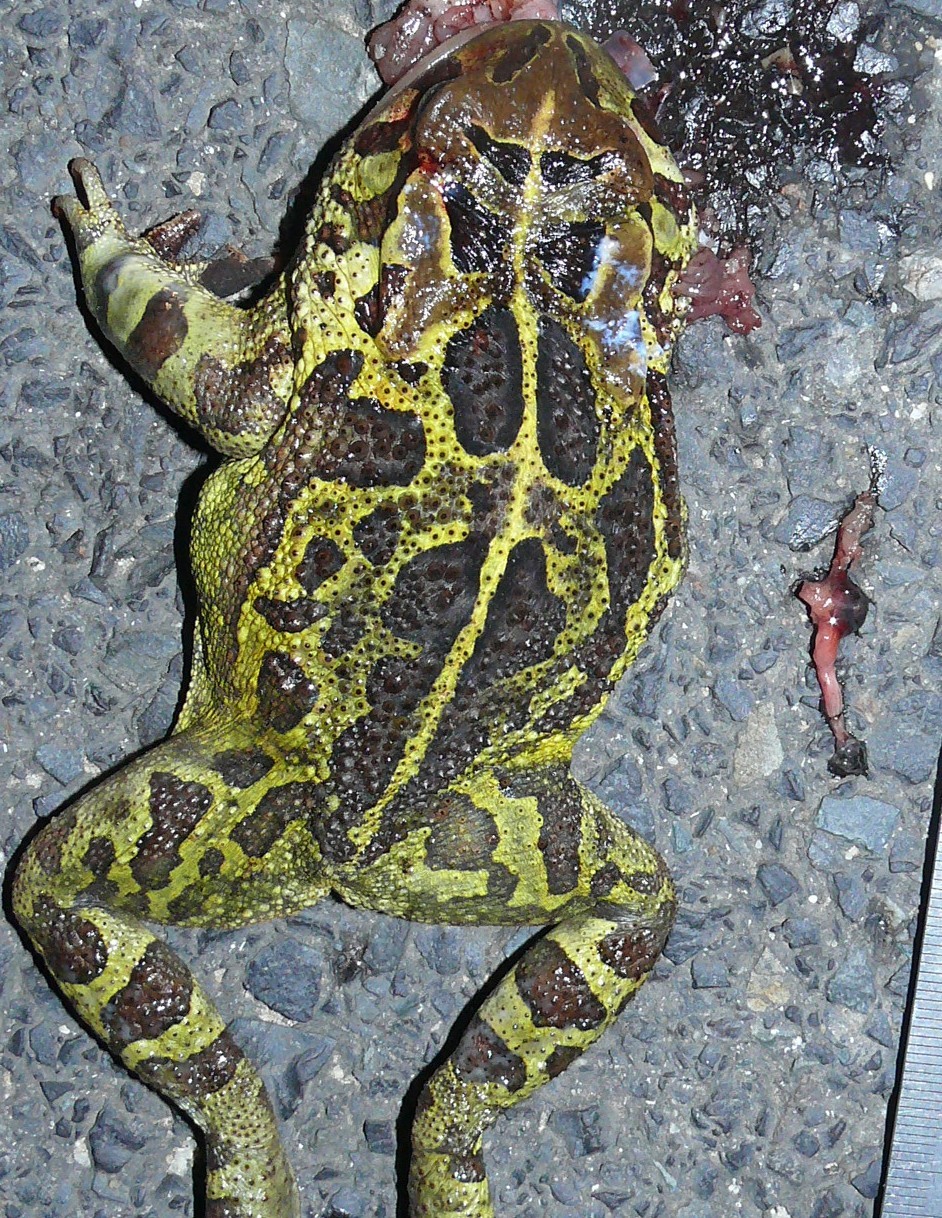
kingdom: Animalia
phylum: Chordata
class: Amphibia
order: Anura
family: Bufonidae
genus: Sclerophrys
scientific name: Sclerophrys pantherina
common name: Panther toad
